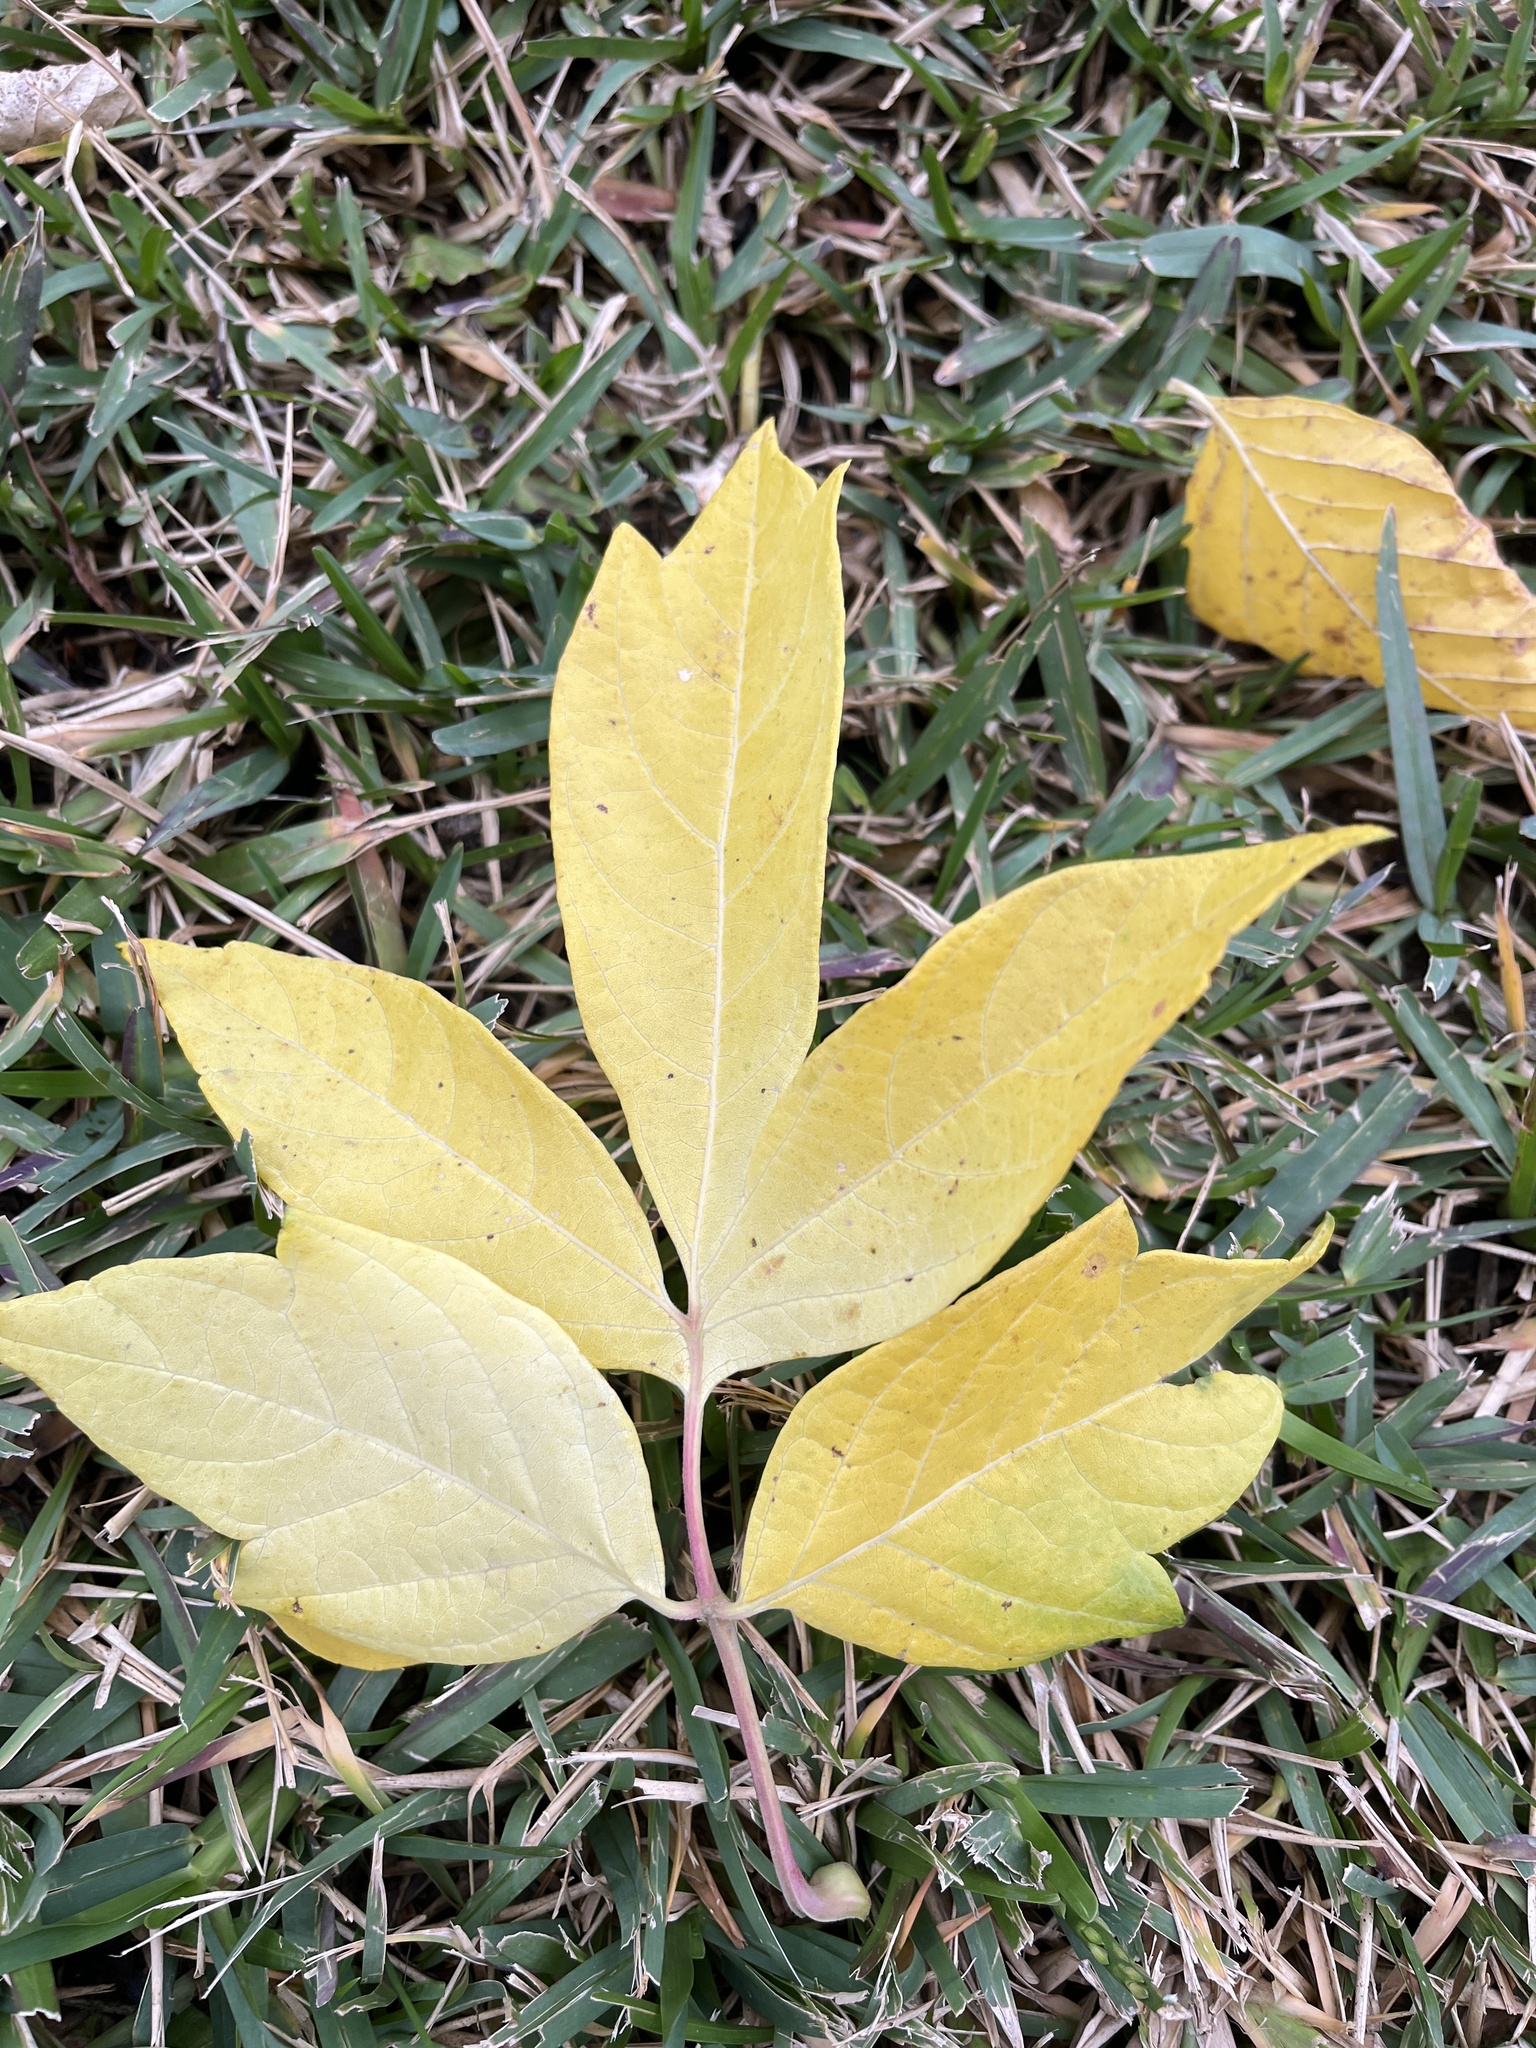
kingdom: Plantae
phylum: Tracheophyta
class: Magnoliopsida
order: Sapindales
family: Sapindaceae
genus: Acer
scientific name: Acer negundo
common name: Ashleaf maple
